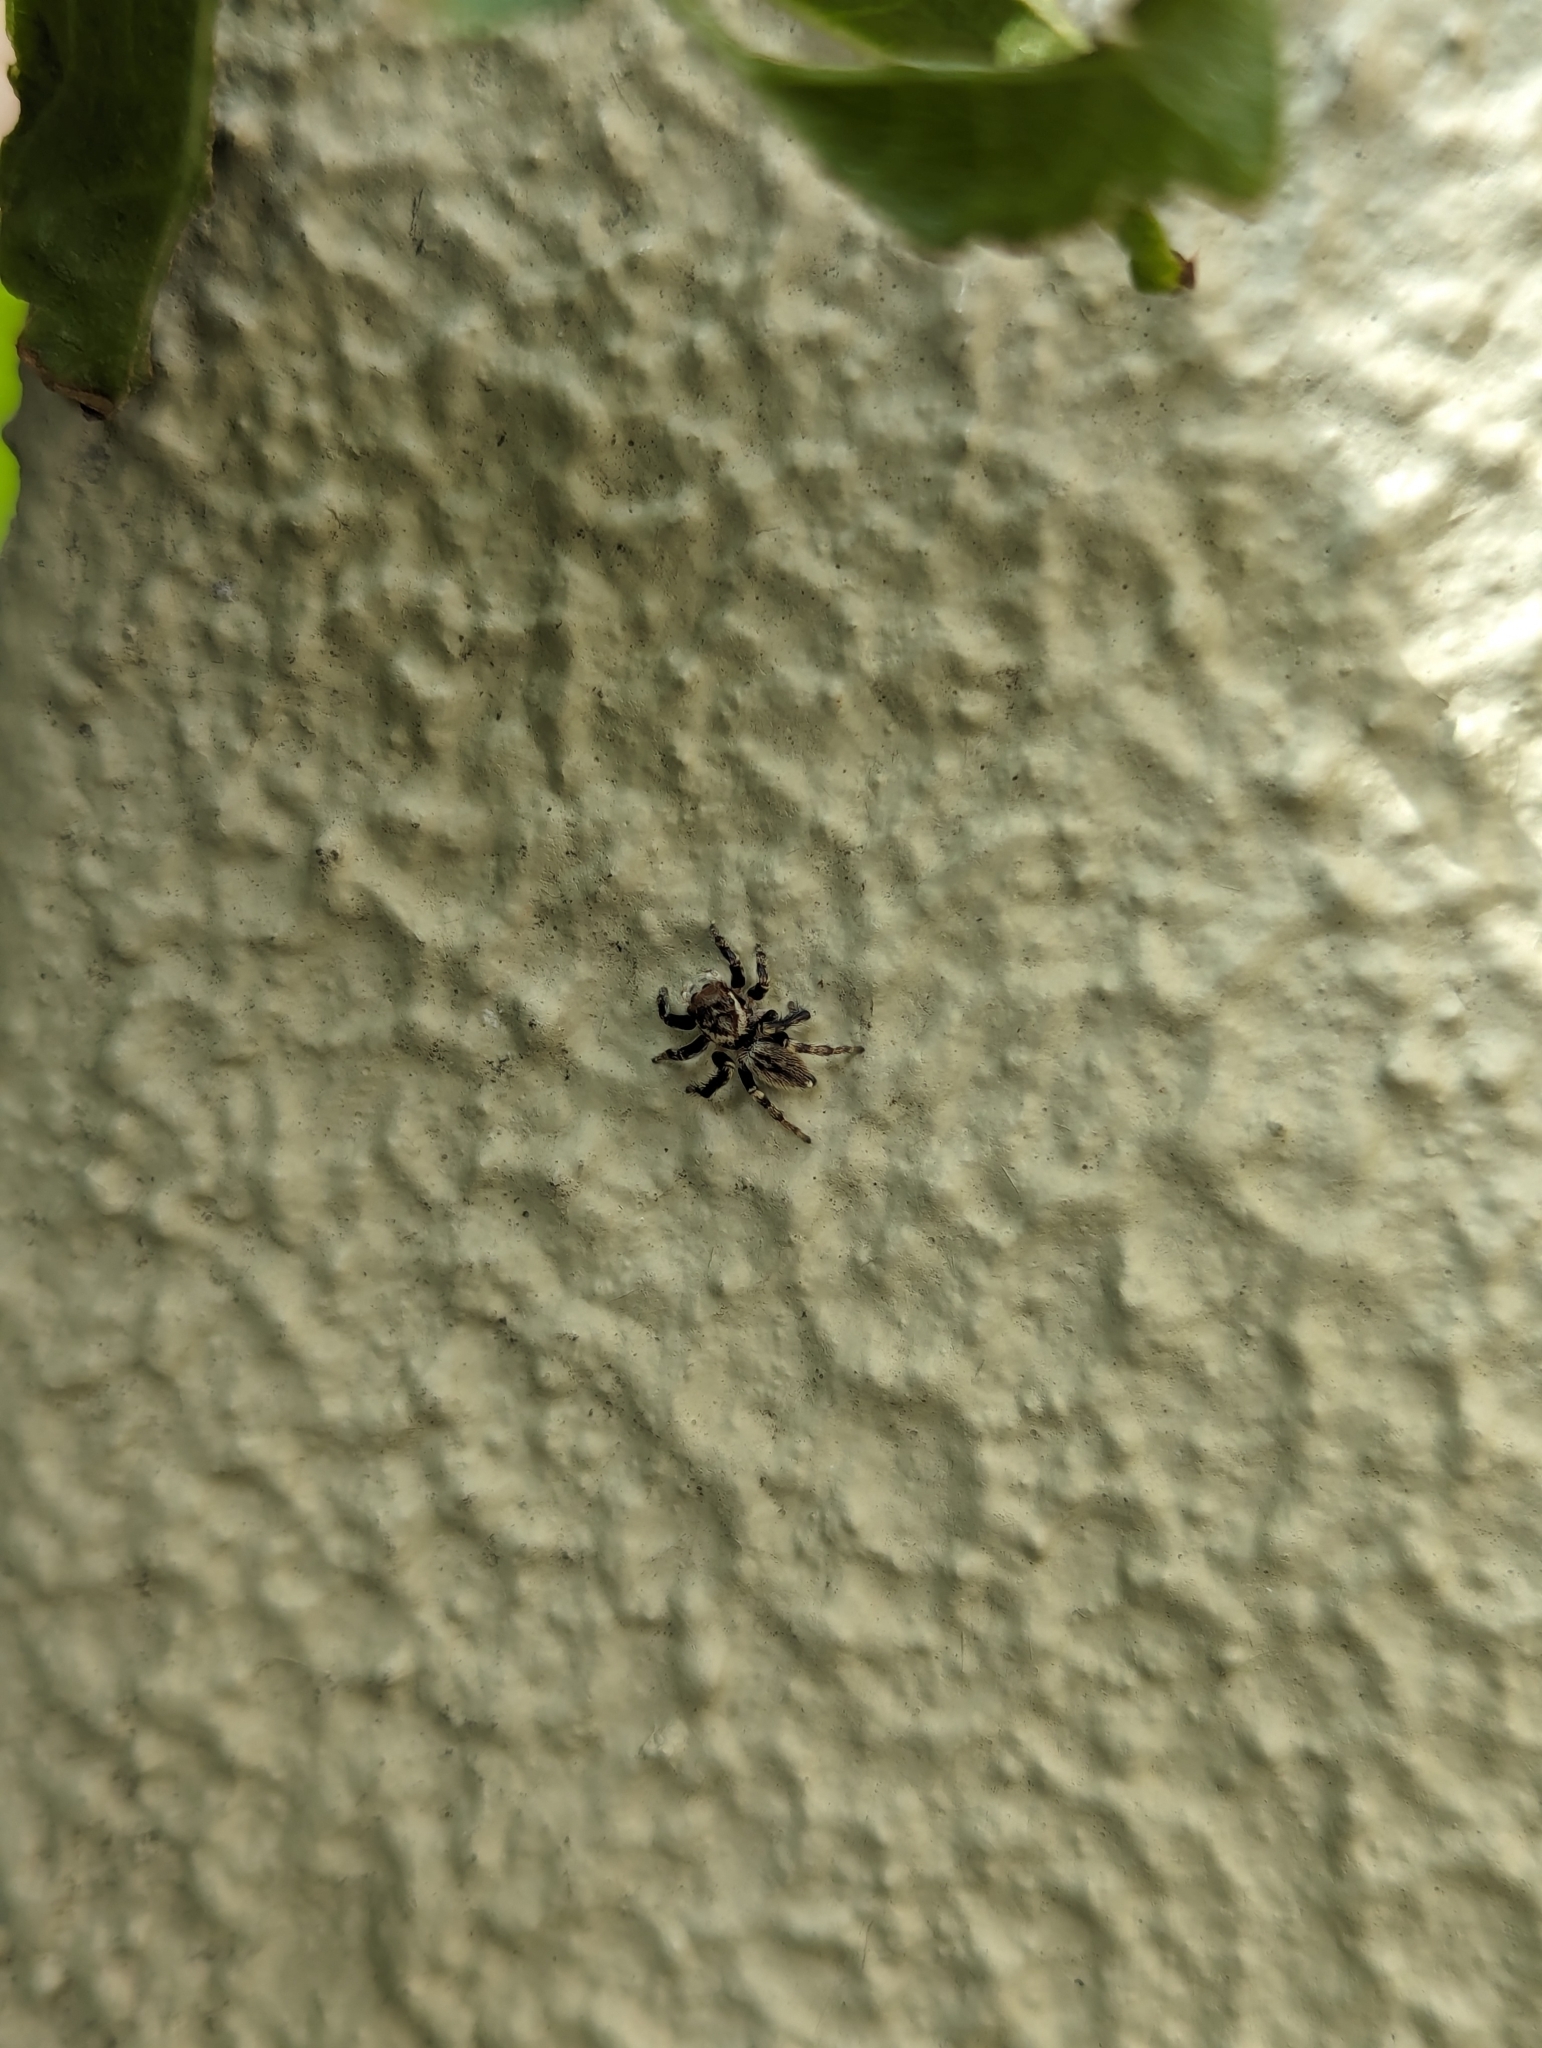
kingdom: Animalia
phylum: Arthropoda
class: Arachnida
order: Araneae
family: Salticidae
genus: Maratus
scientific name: Maratus griseus
